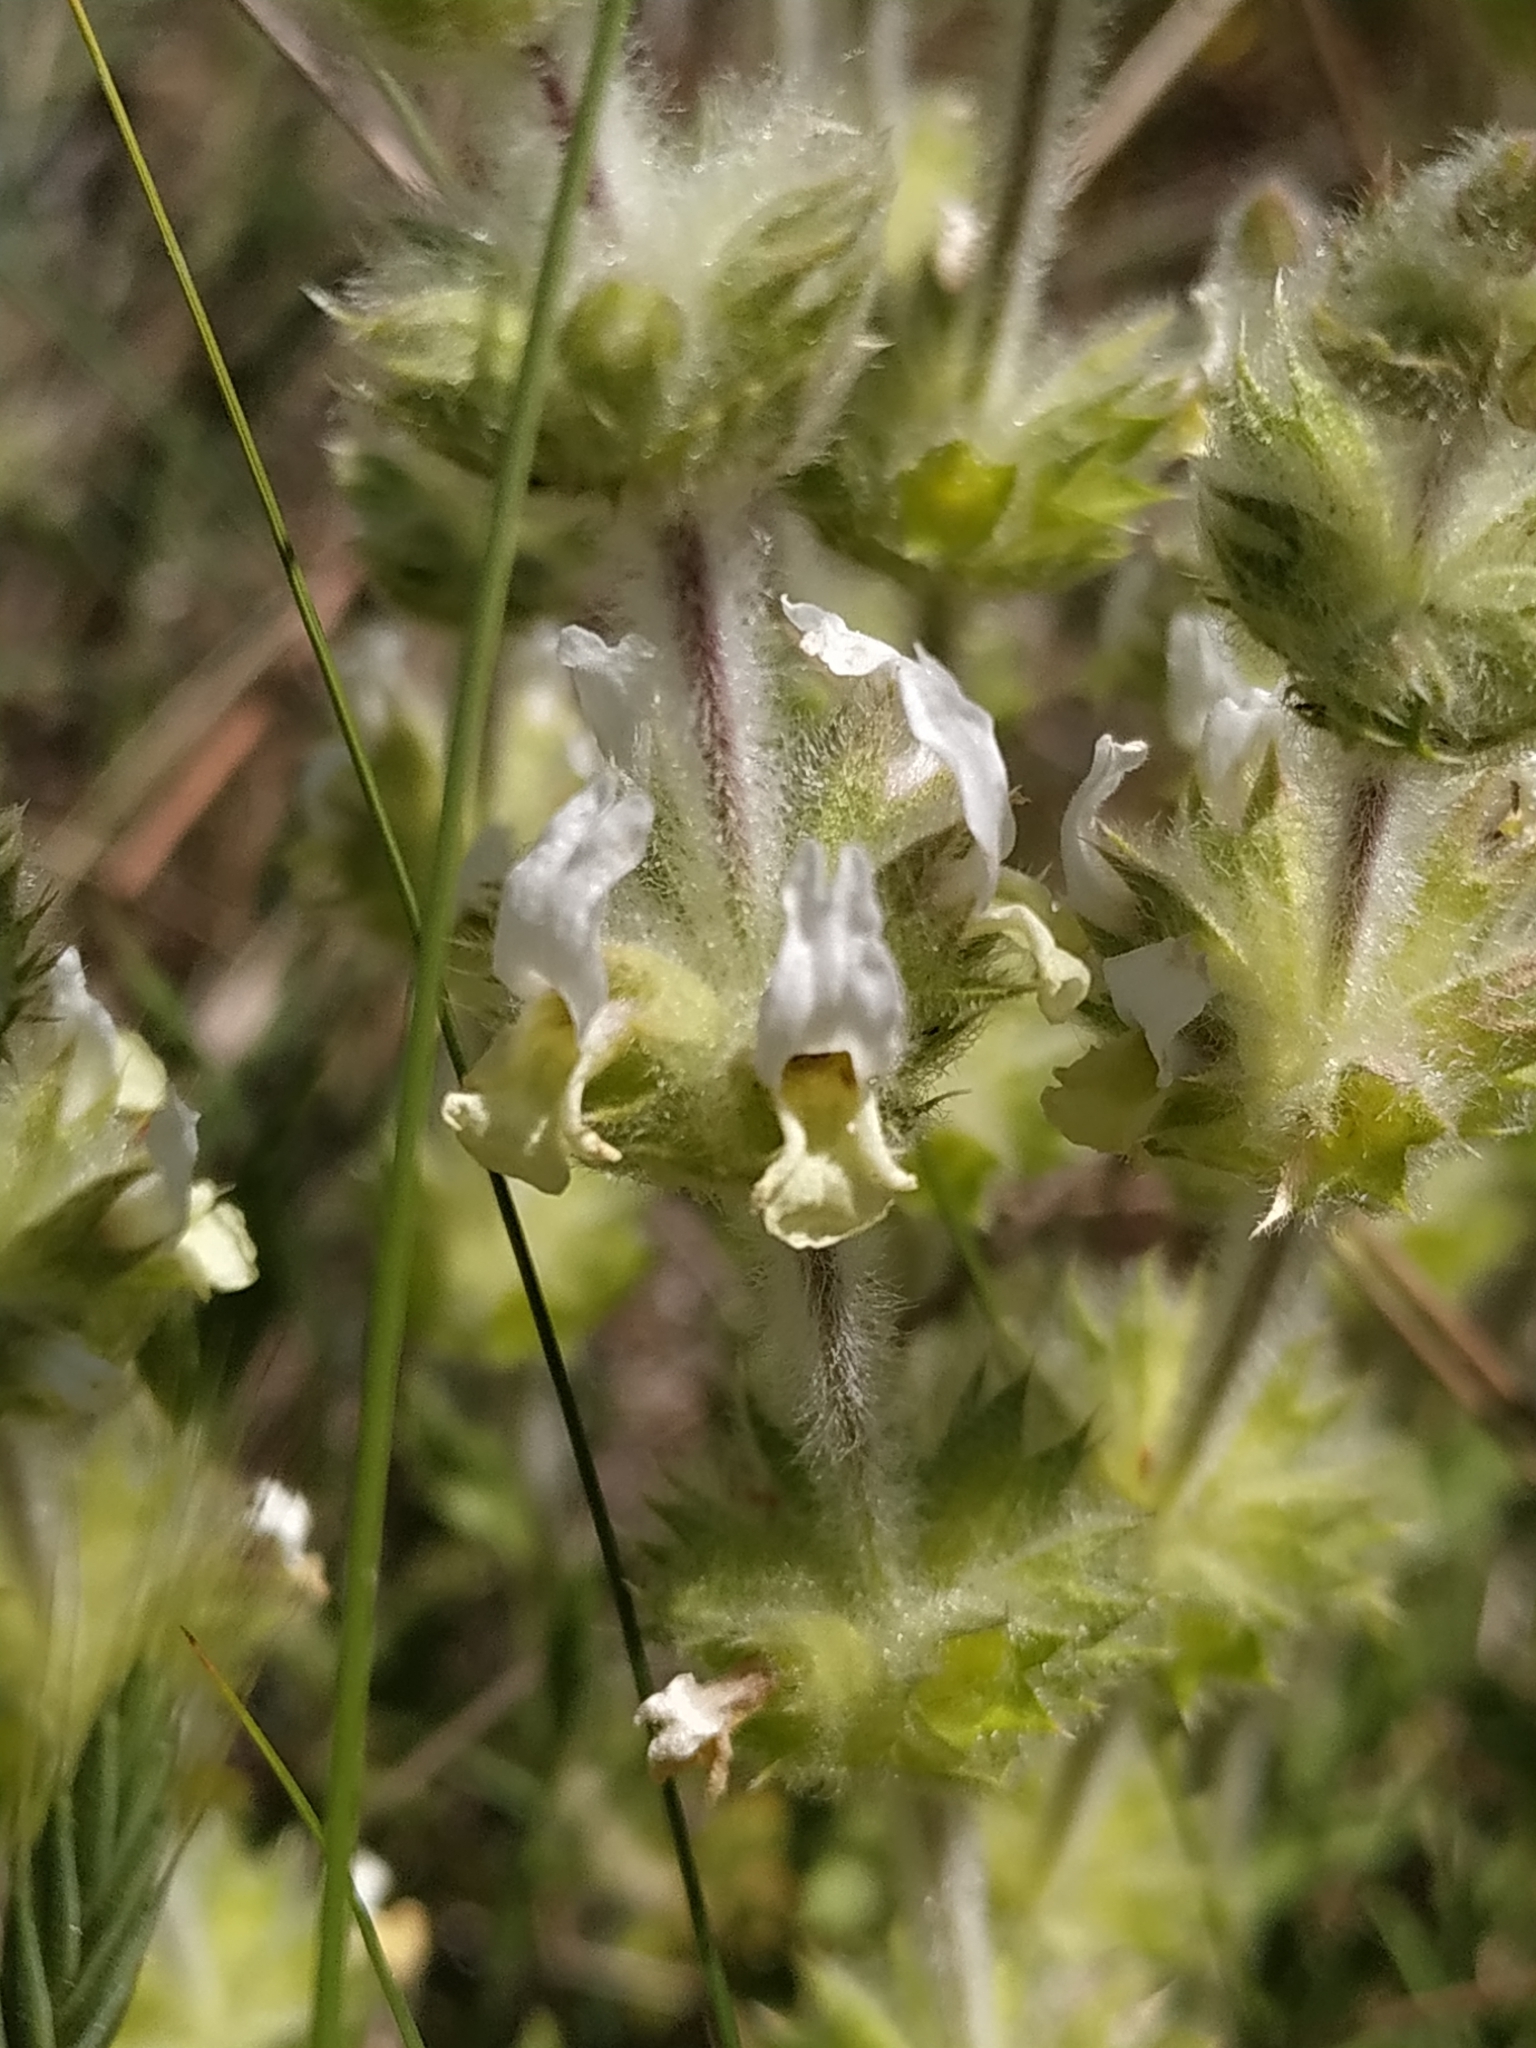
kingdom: Plantae
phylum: Tracheophyta
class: Magnoliopsida
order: Lamiales
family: Lamiaceae
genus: Sideritis
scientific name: Sideritis hirsuta
